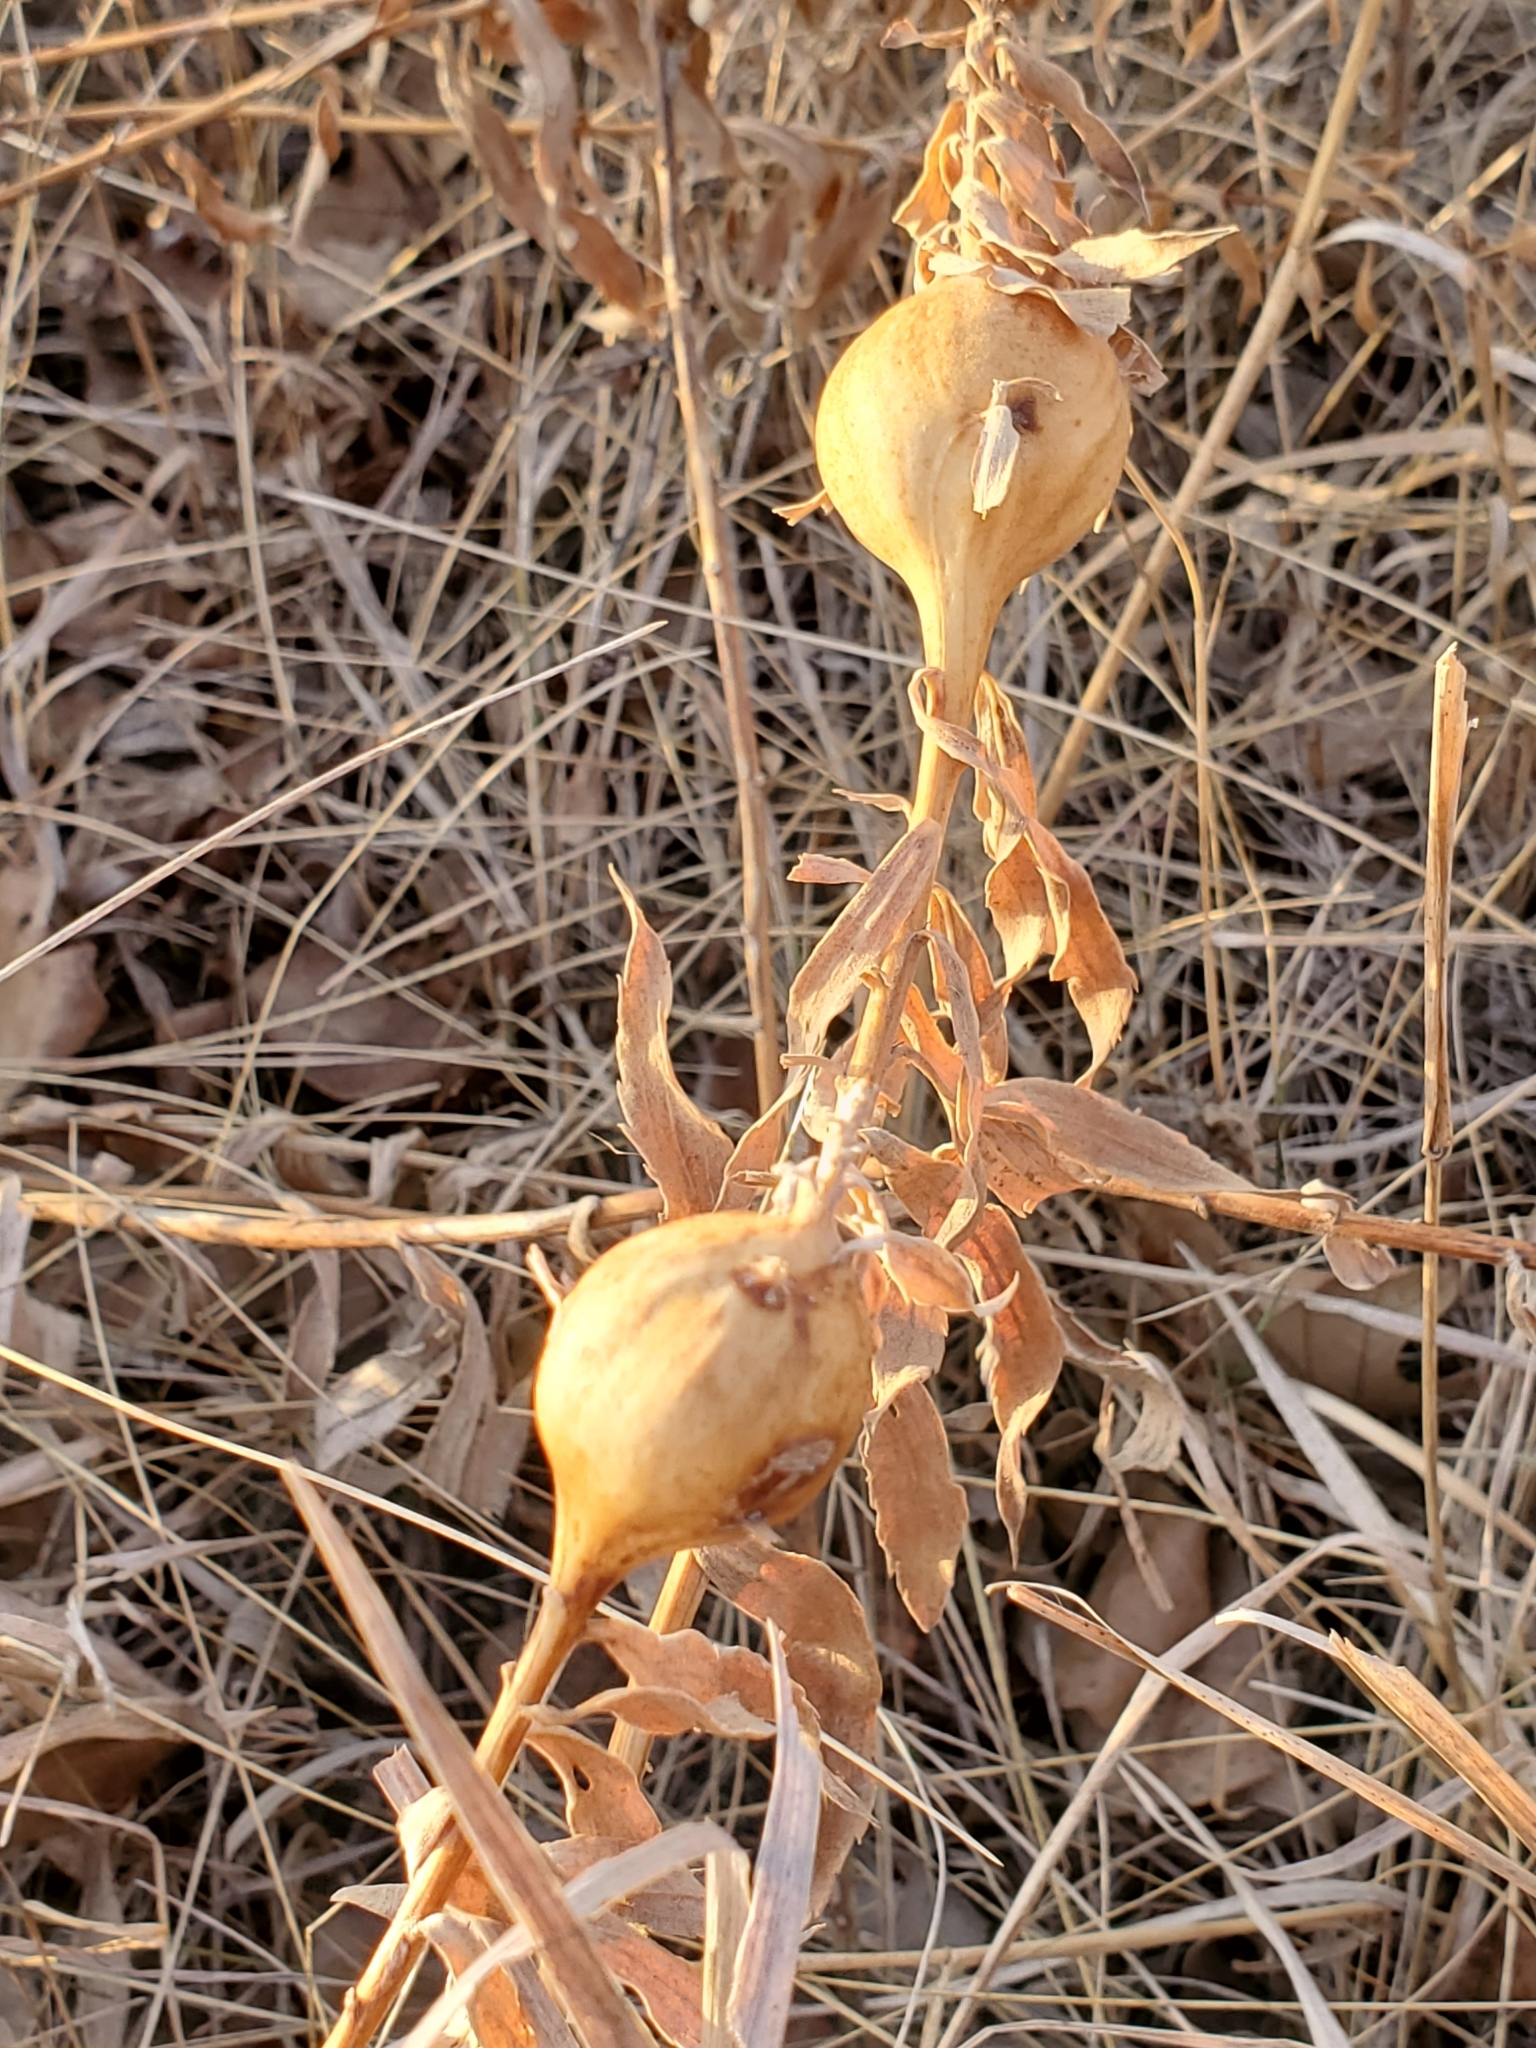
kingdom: Animalia
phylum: Arthropoda
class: Insecta
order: Diptera
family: Tephritidae
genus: Eurosta
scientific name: Eurosta solidaginis
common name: Goldenrod gall fly
